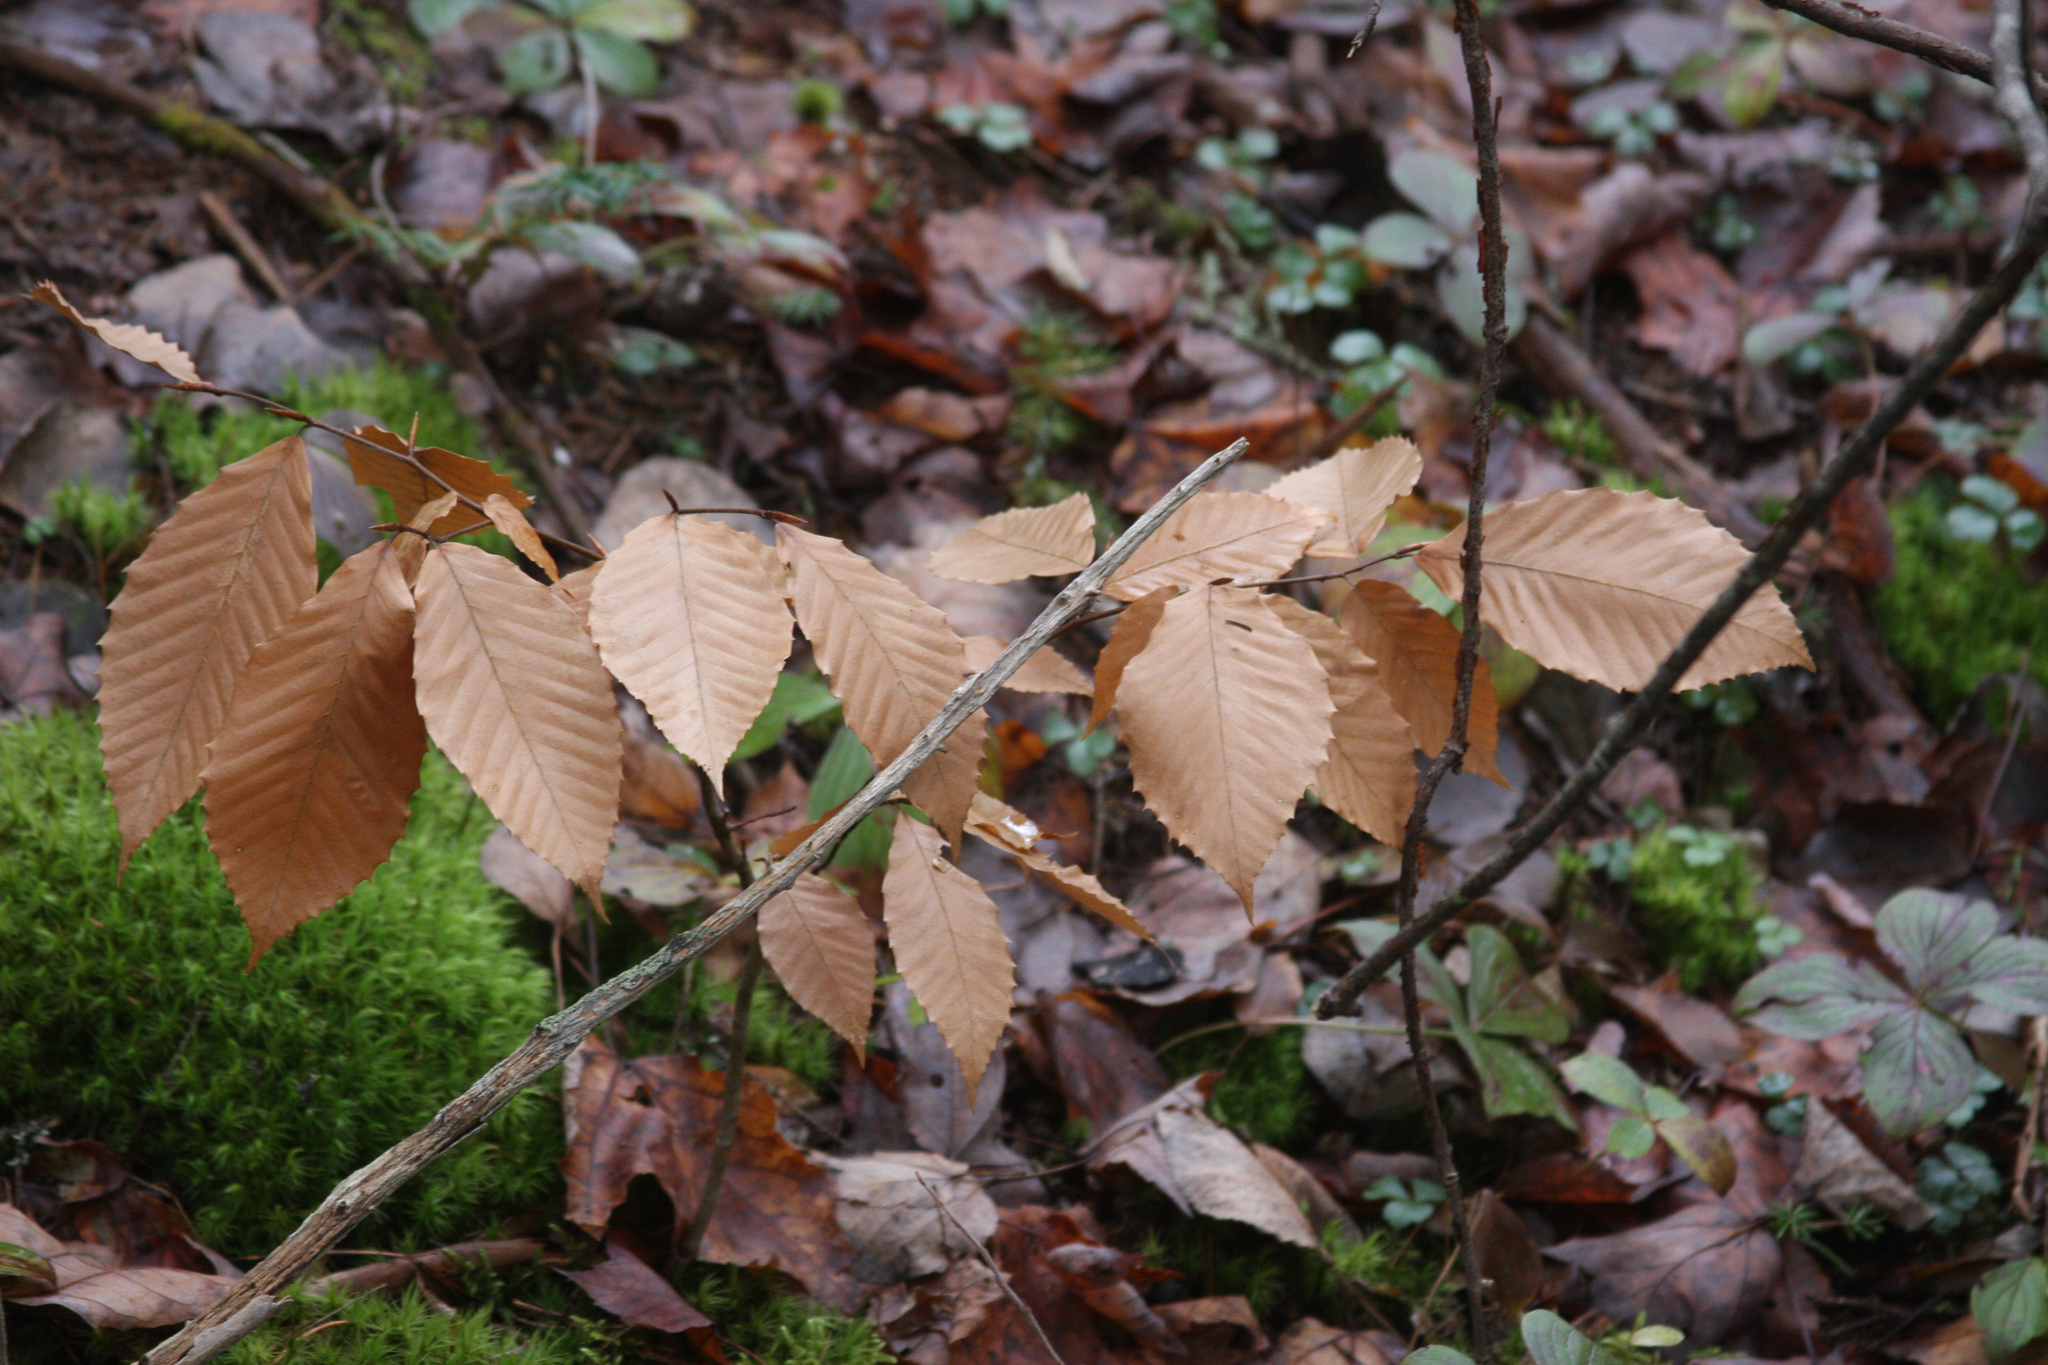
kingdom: Plantae
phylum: Tracheophyta
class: Magnoliopsida
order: Fagales
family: Fagaceae
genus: Fagus
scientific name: Fagus grandifolia
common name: American beech
